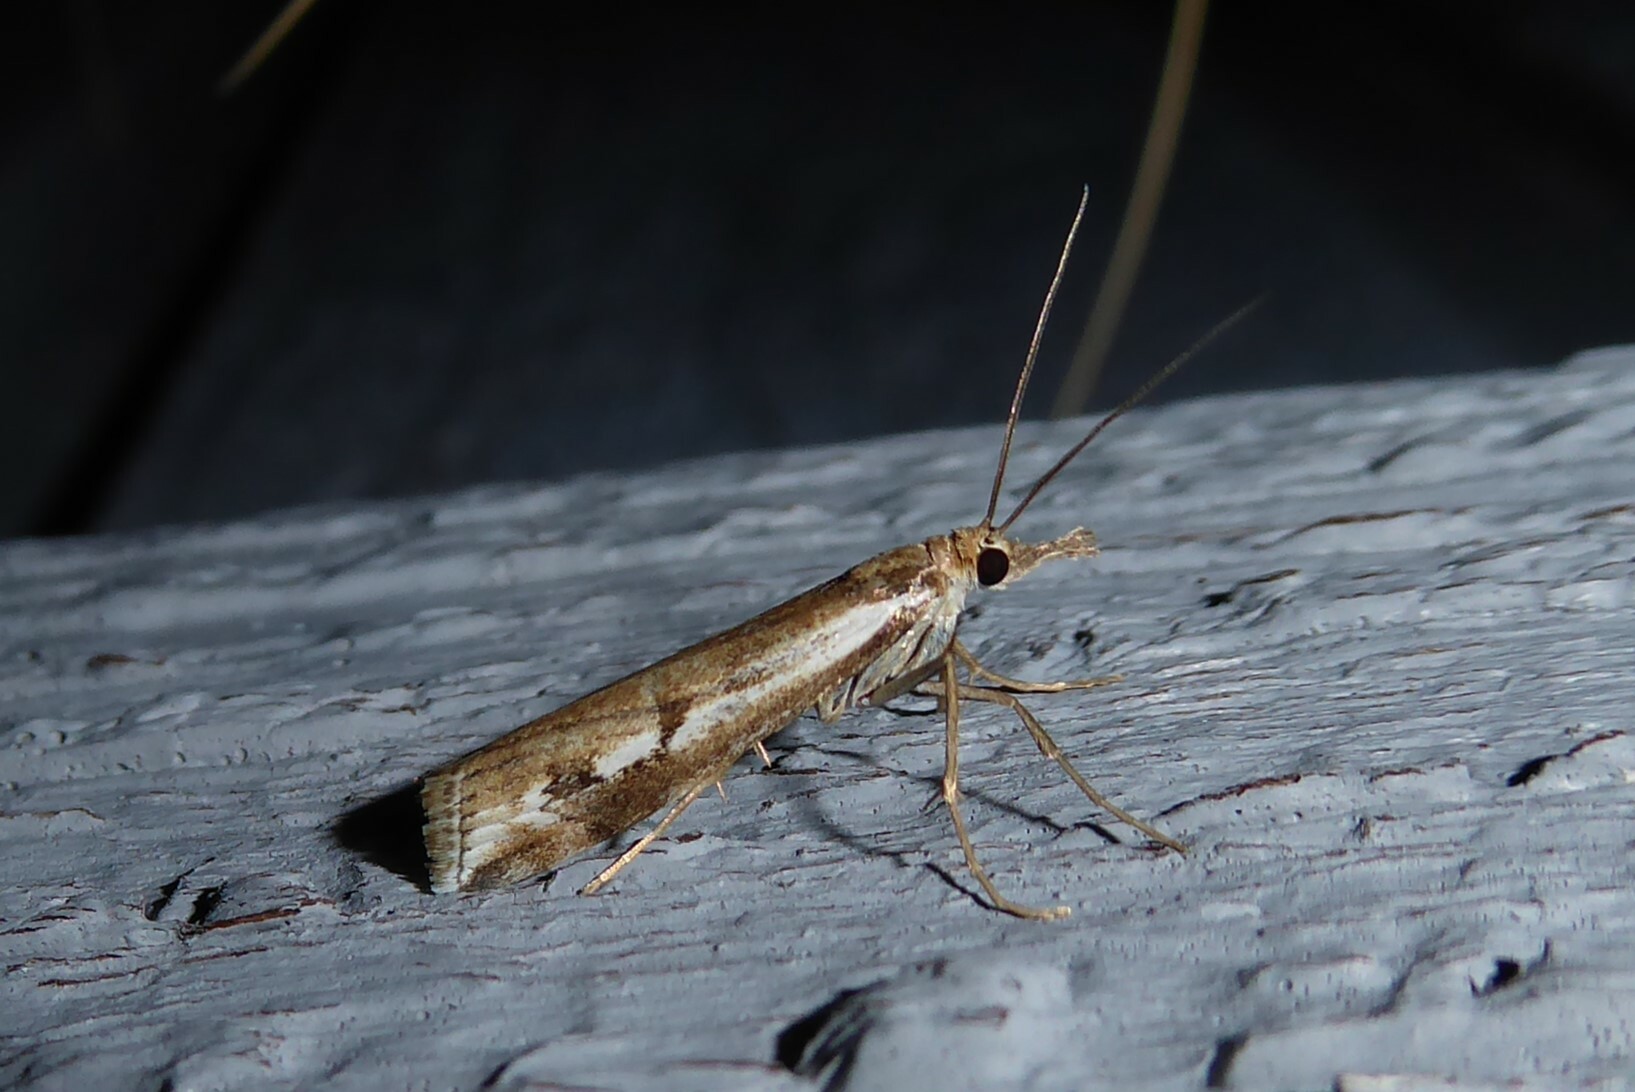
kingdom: Animalia
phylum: Arthropoda
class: Insecta
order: Lepidoptera
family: Crambidae
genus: Orocrambus
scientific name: Orocrambus vulgaris
